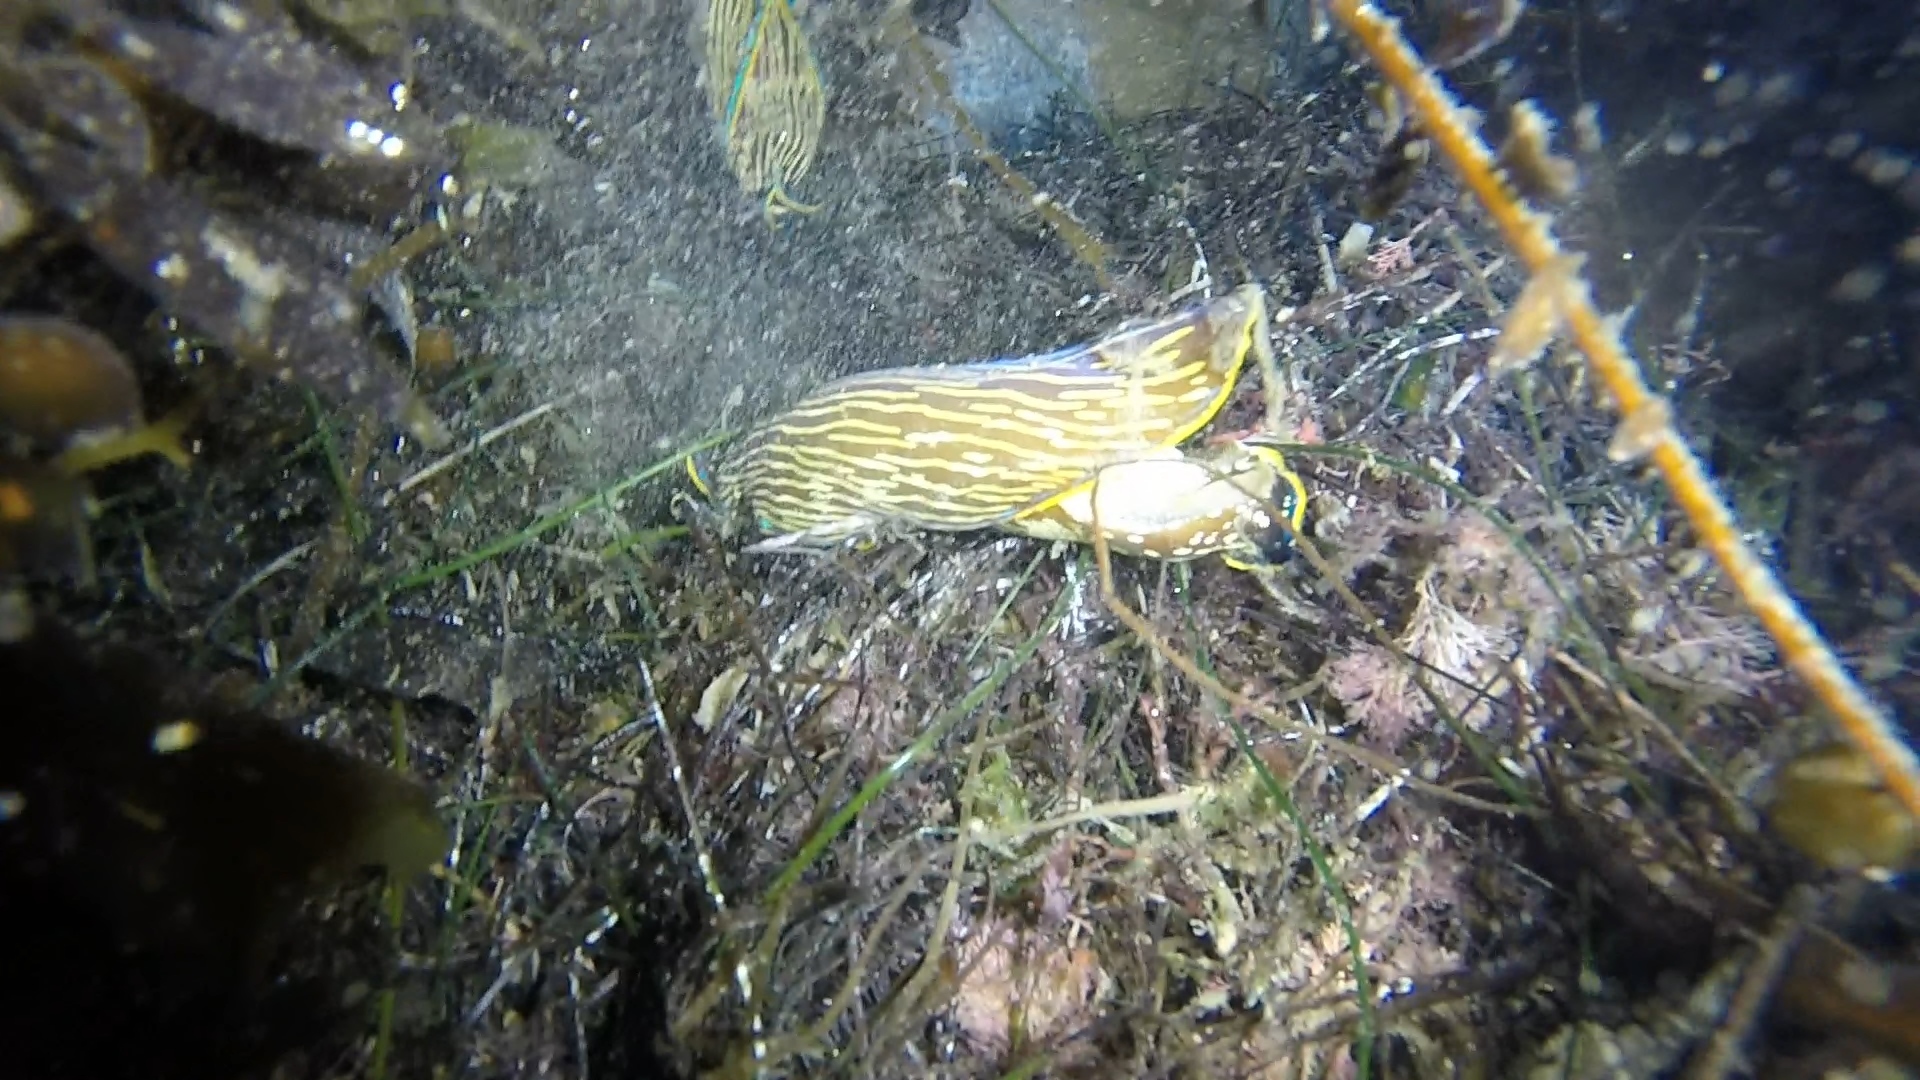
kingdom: Animalia
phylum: Mollusca
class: Gastropoda
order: Cephalaspidea
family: Aglajidae
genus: Navanax
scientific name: Navanax inermis
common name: California aglaja
